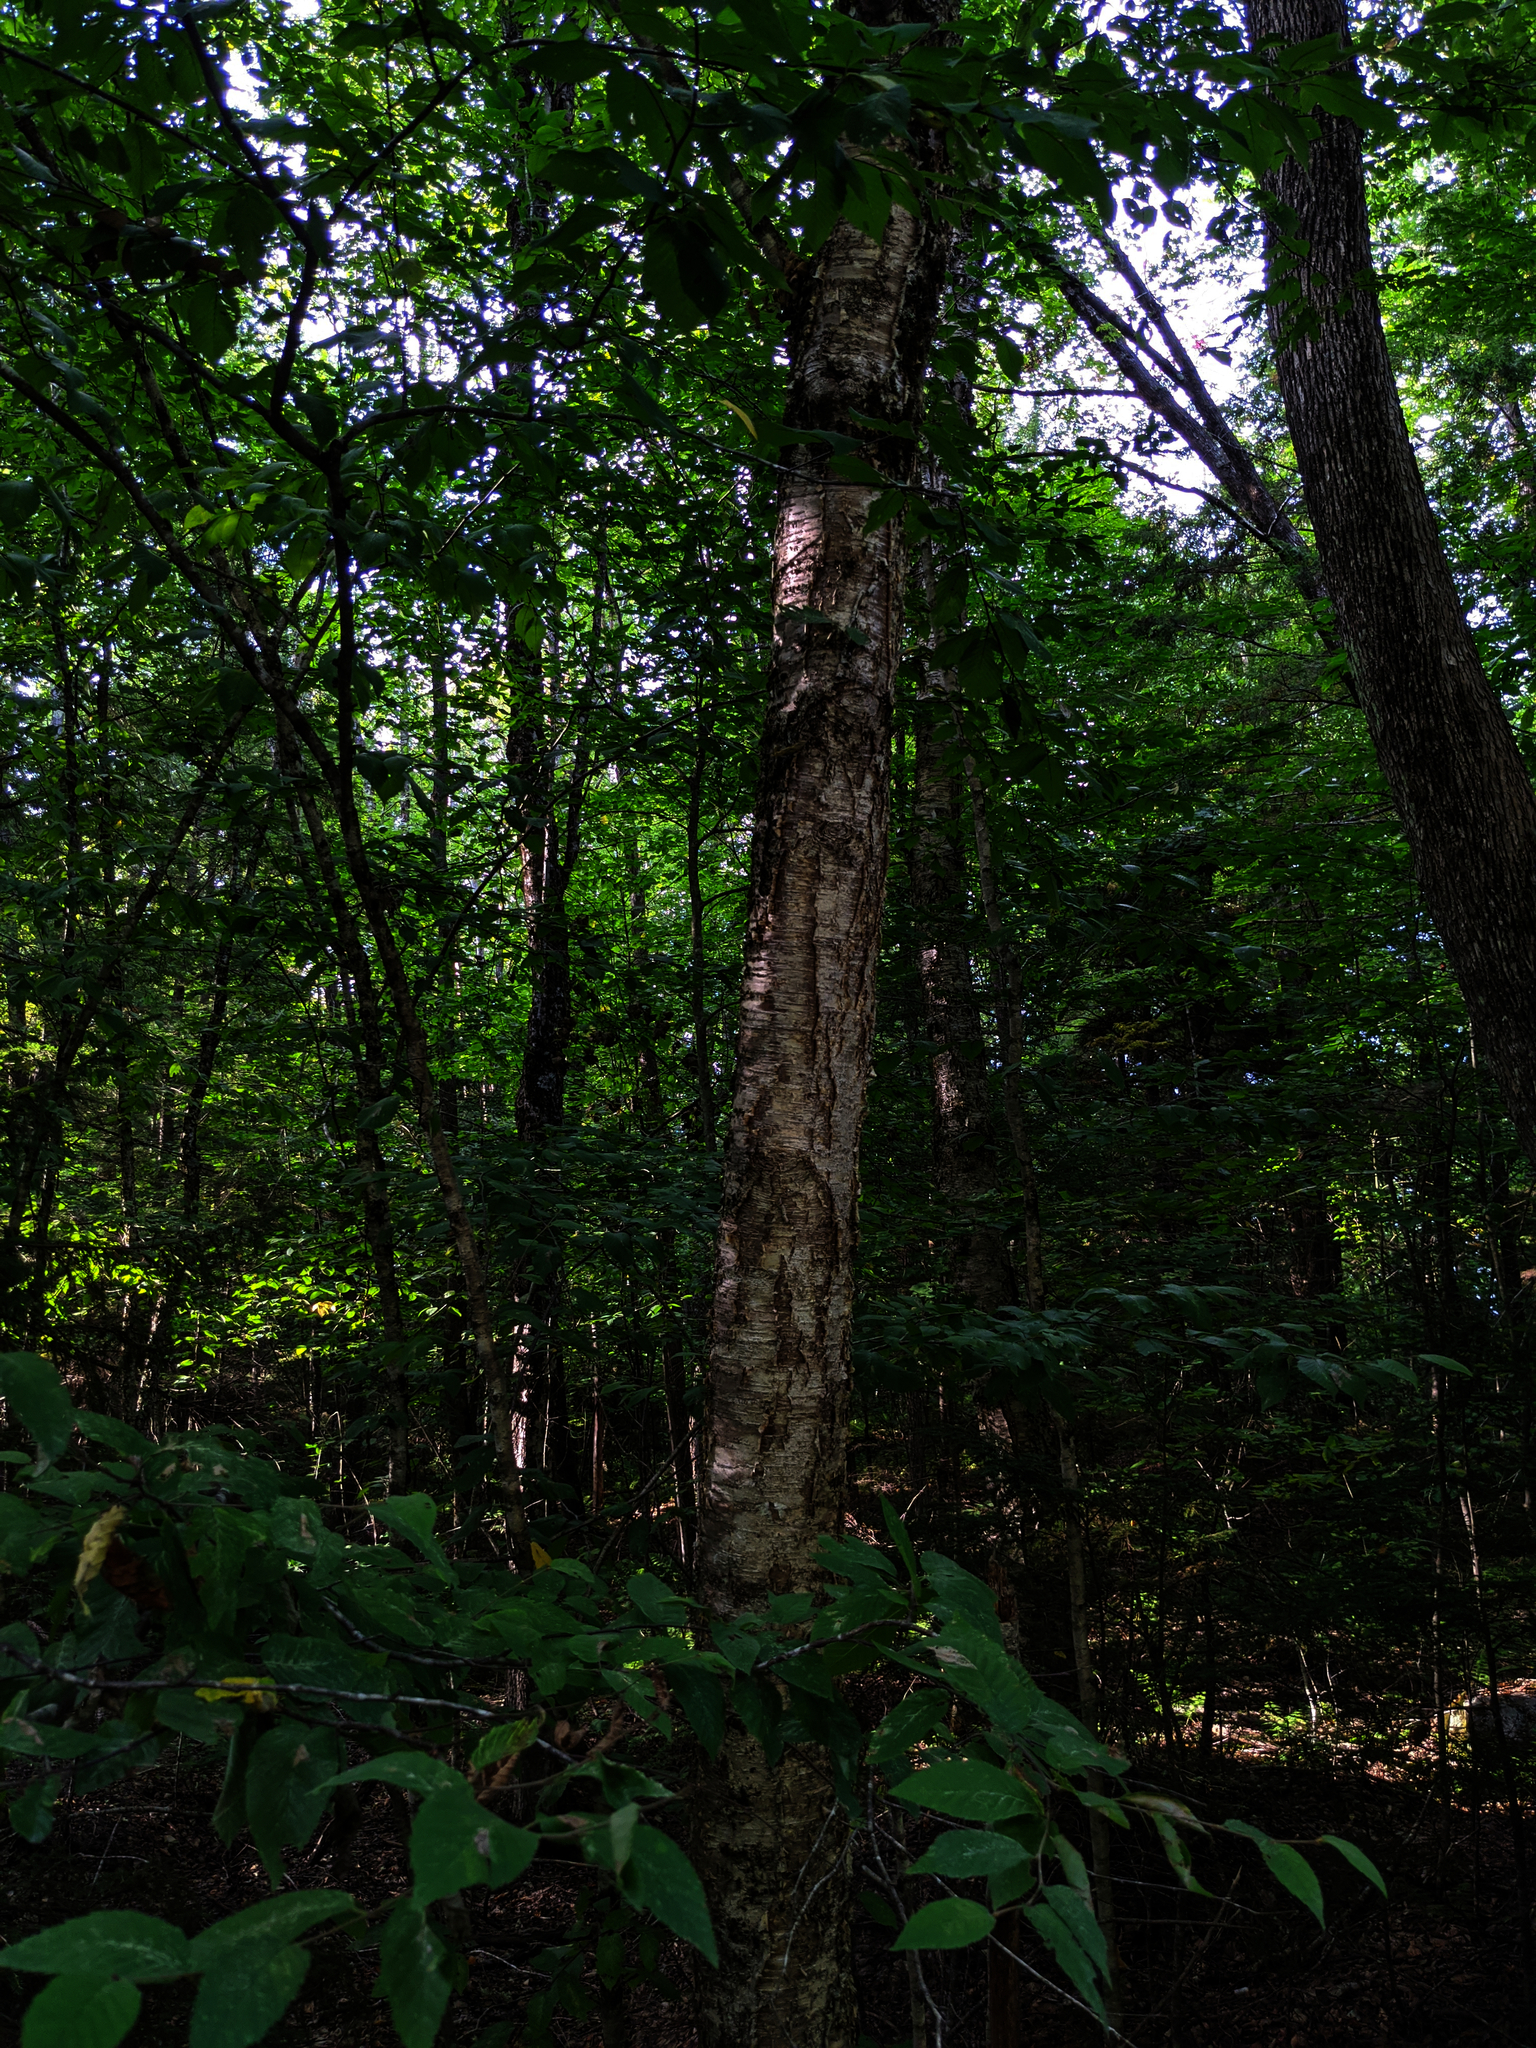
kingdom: Plantae
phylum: Tracheophyta
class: Magnoliopsida
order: Fagales
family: Betulaceae
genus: Betula
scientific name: Betula alleghaniensis
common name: Yellow birch
